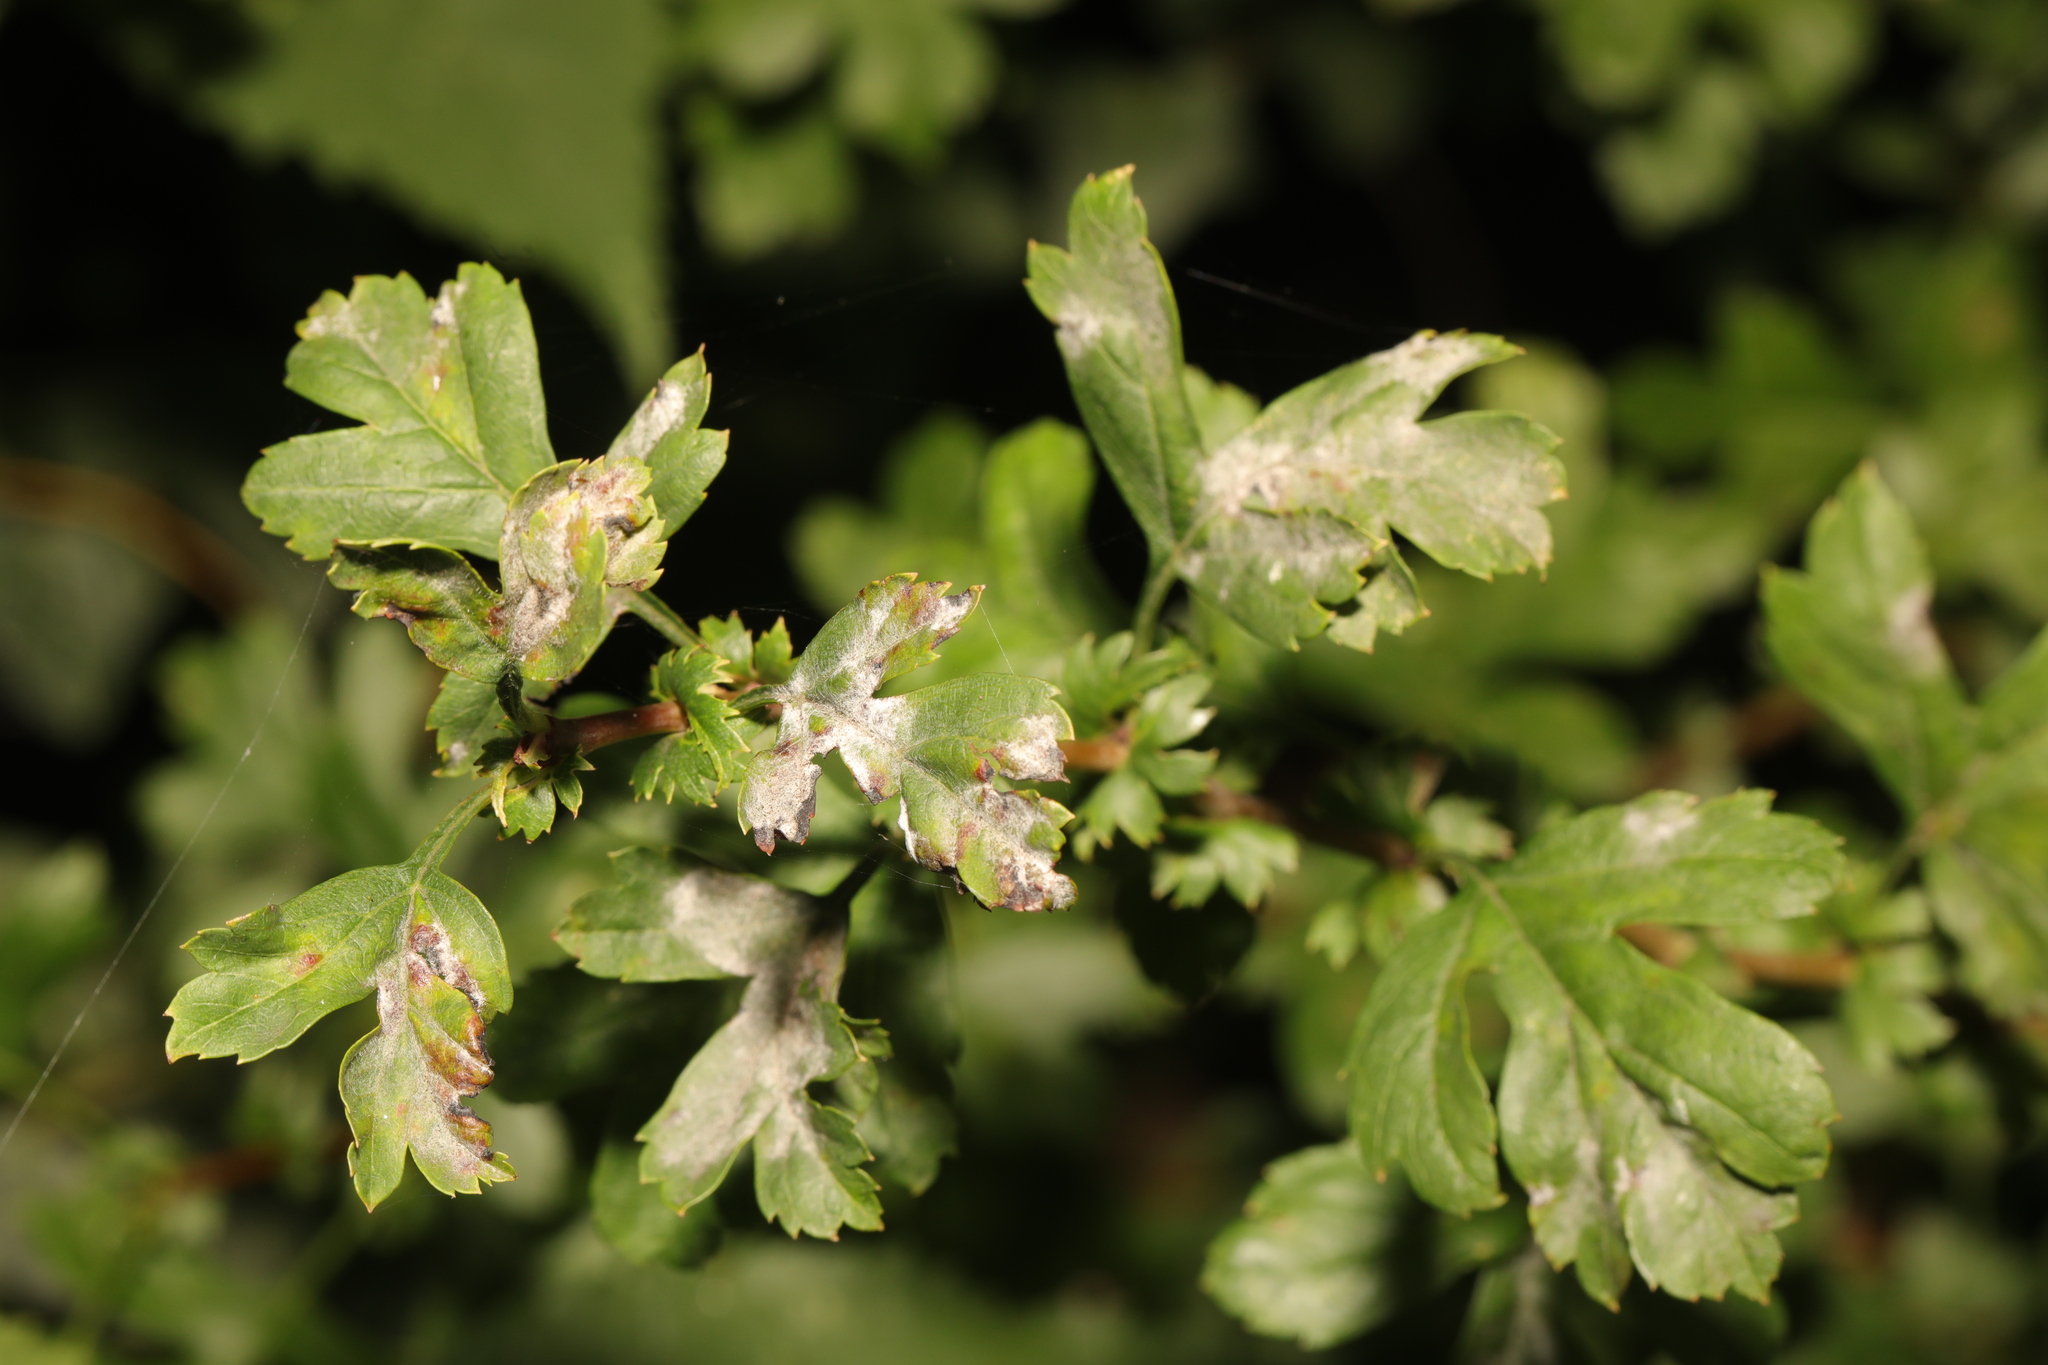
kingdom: Plantae
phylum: Tracheophyta
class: Magnoliopsida
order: Rosales
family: Rosaceae
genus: Crataegus
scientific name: Crataegus monogyna
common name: Hawthorn
